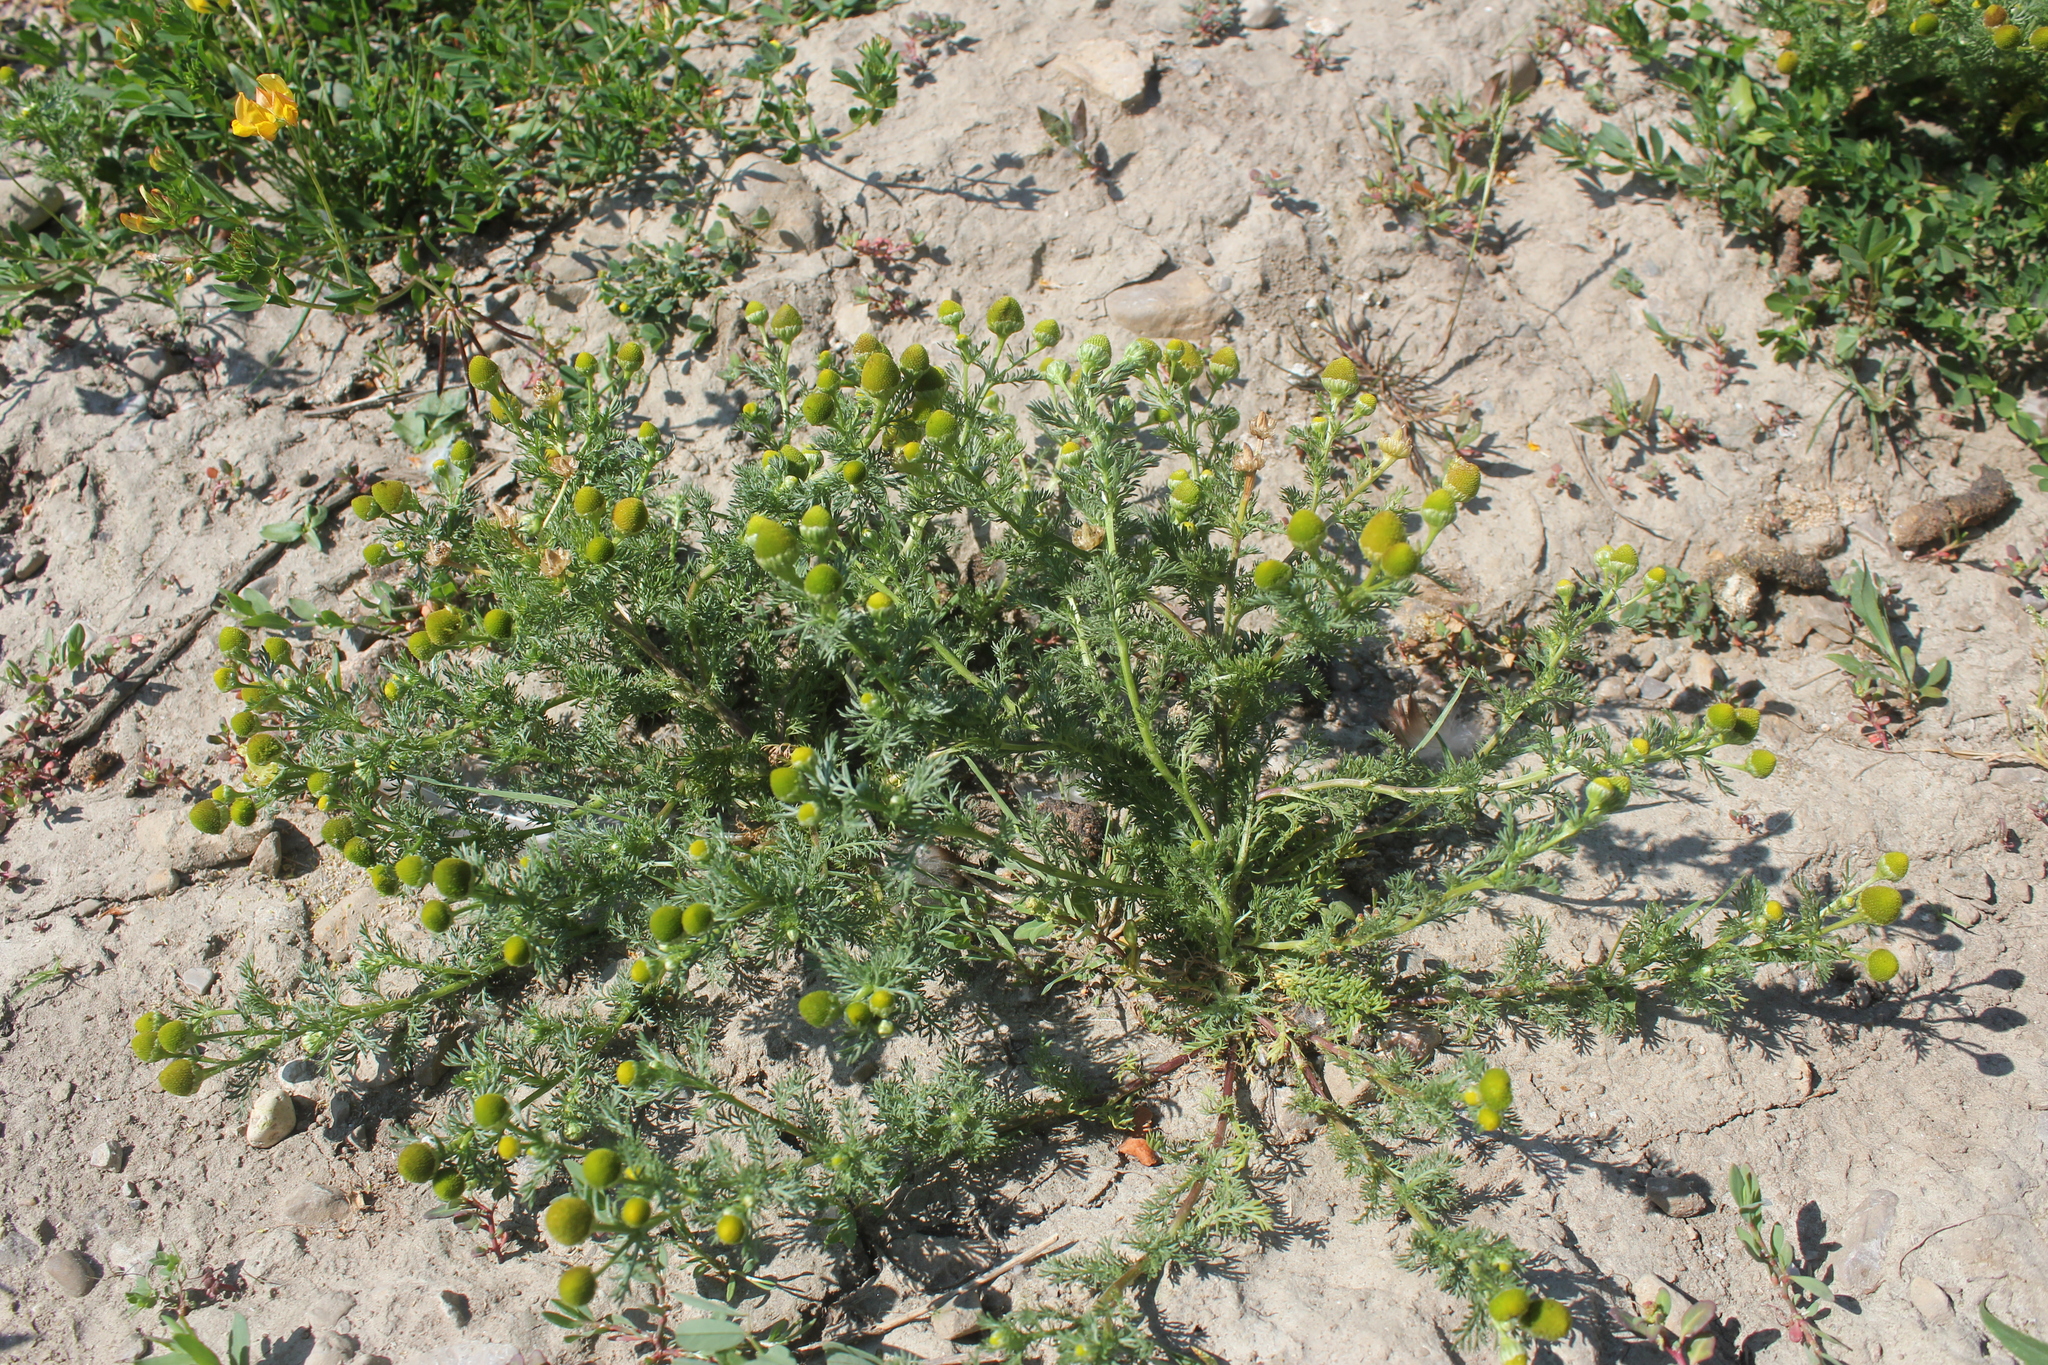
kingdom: Plantae
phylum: Tracheophyta
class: Magnoliopsida
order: Asterales
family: Asteraceae
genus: Matricaria
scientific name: Matricaria discoidea
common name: Disc mayweed
